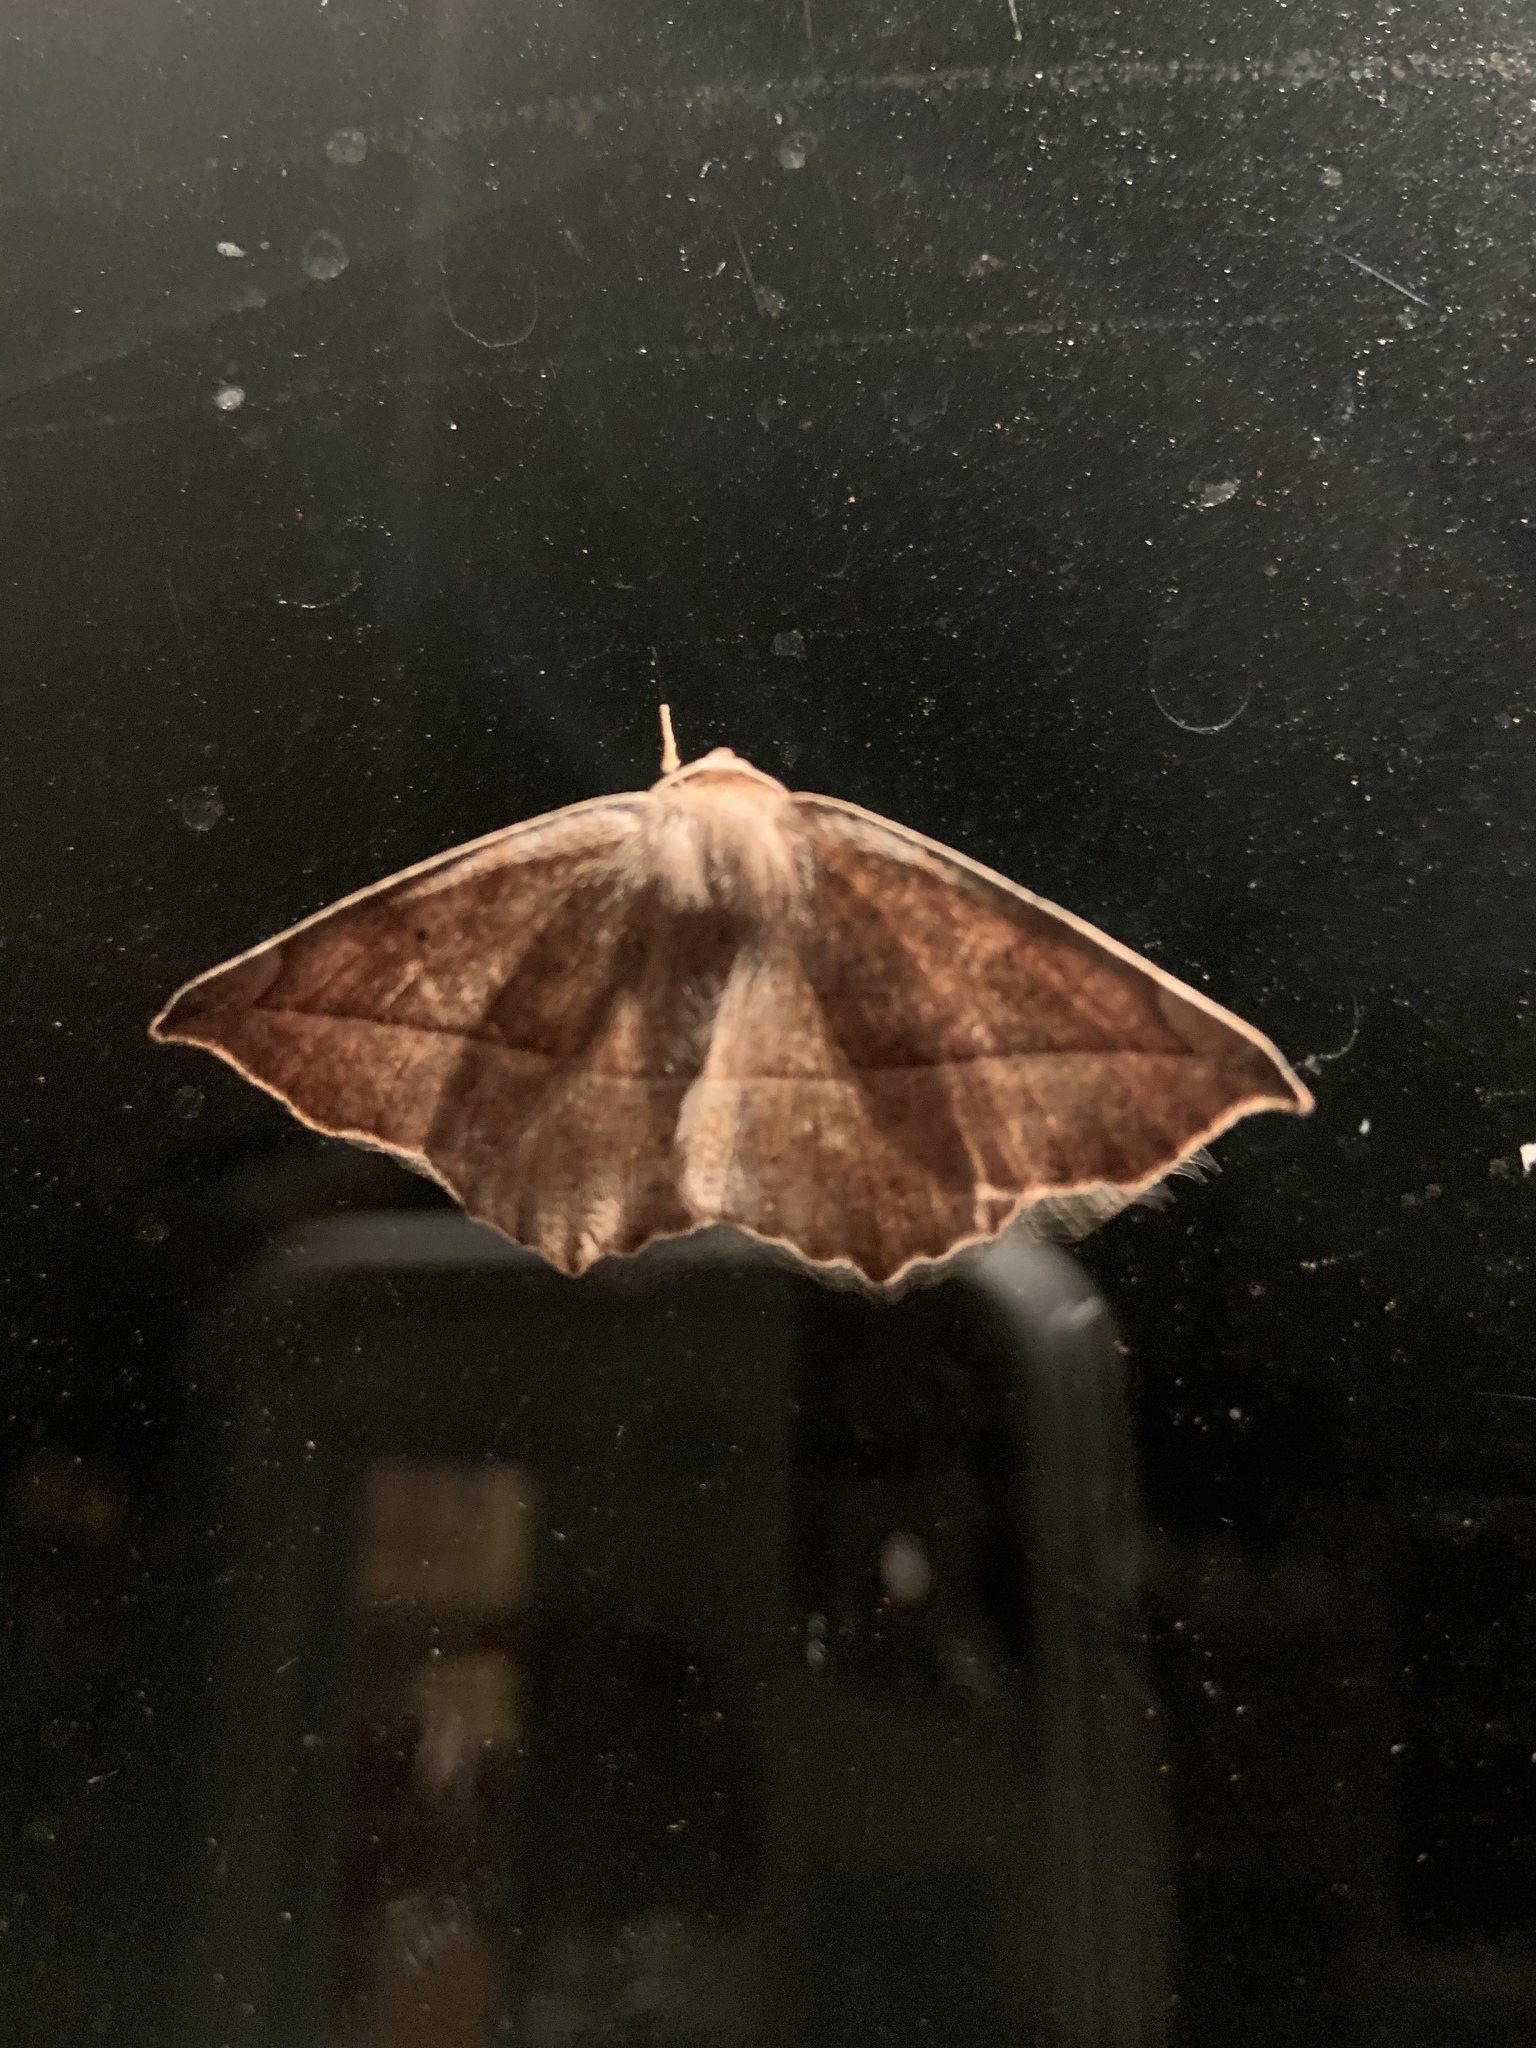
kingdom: Animalia
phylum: Arthropoda
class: Insecta
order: Lepidoptera
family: Geometridae
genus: Eutrapela
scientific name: Eutrapela clemataria
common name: Curved-toothed geometer
